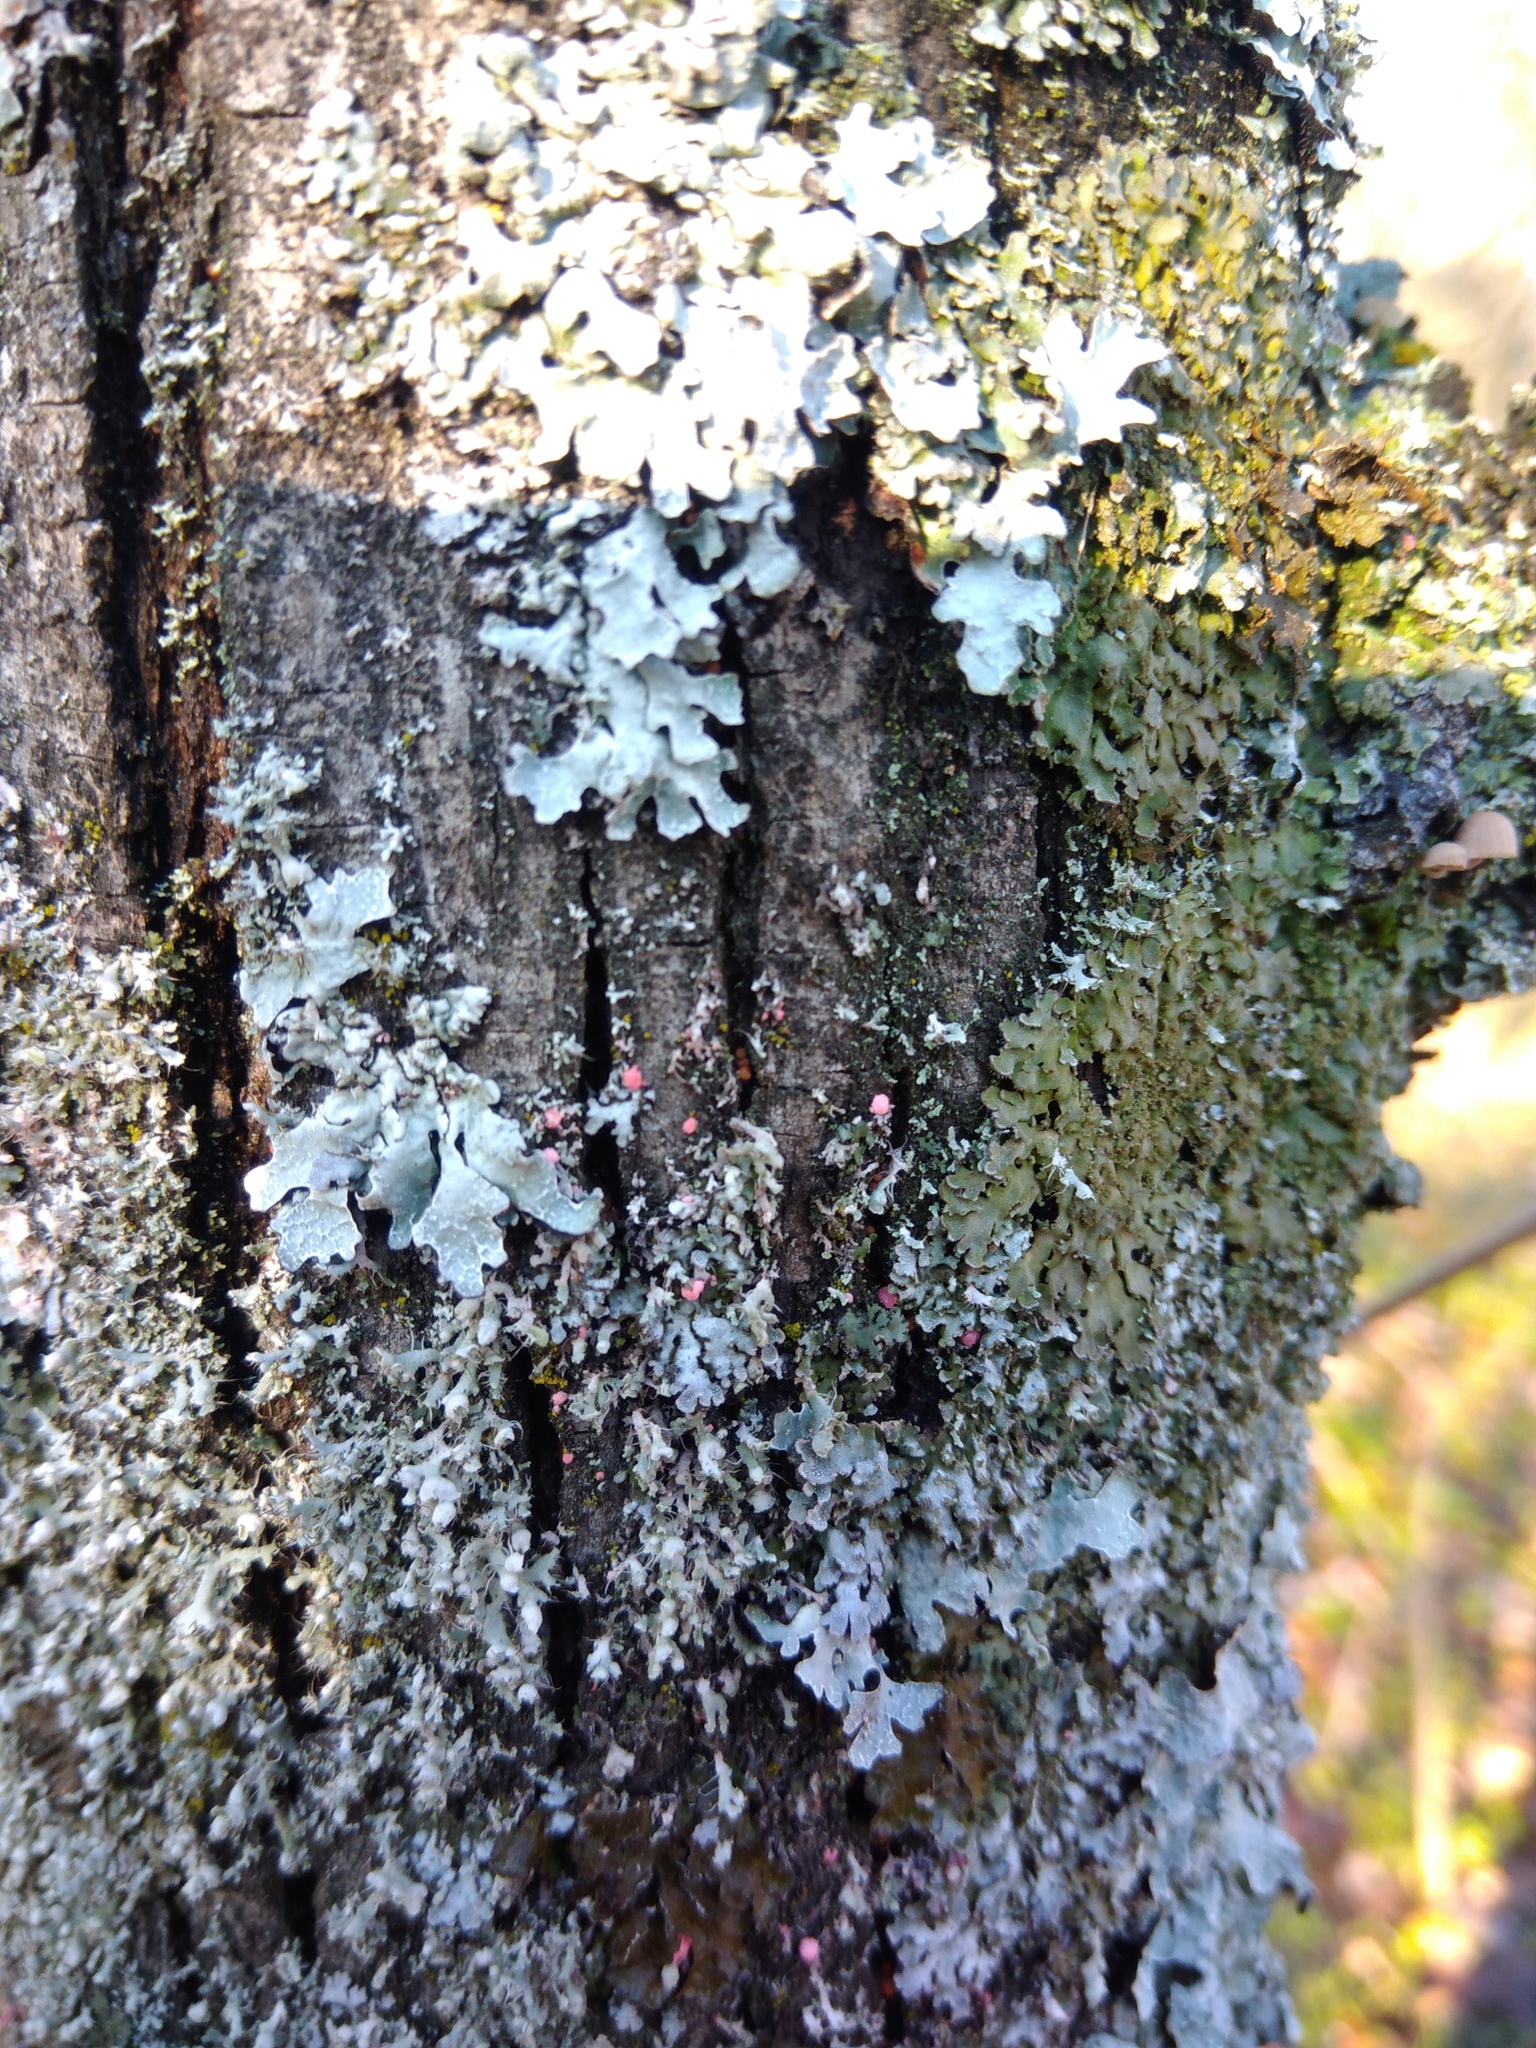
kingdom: Fungi
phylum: Ascomycota
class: Sordariomycetes
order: Hypocreales
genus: Illosporiopsis
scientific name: Illosporiopsis christiansenii
